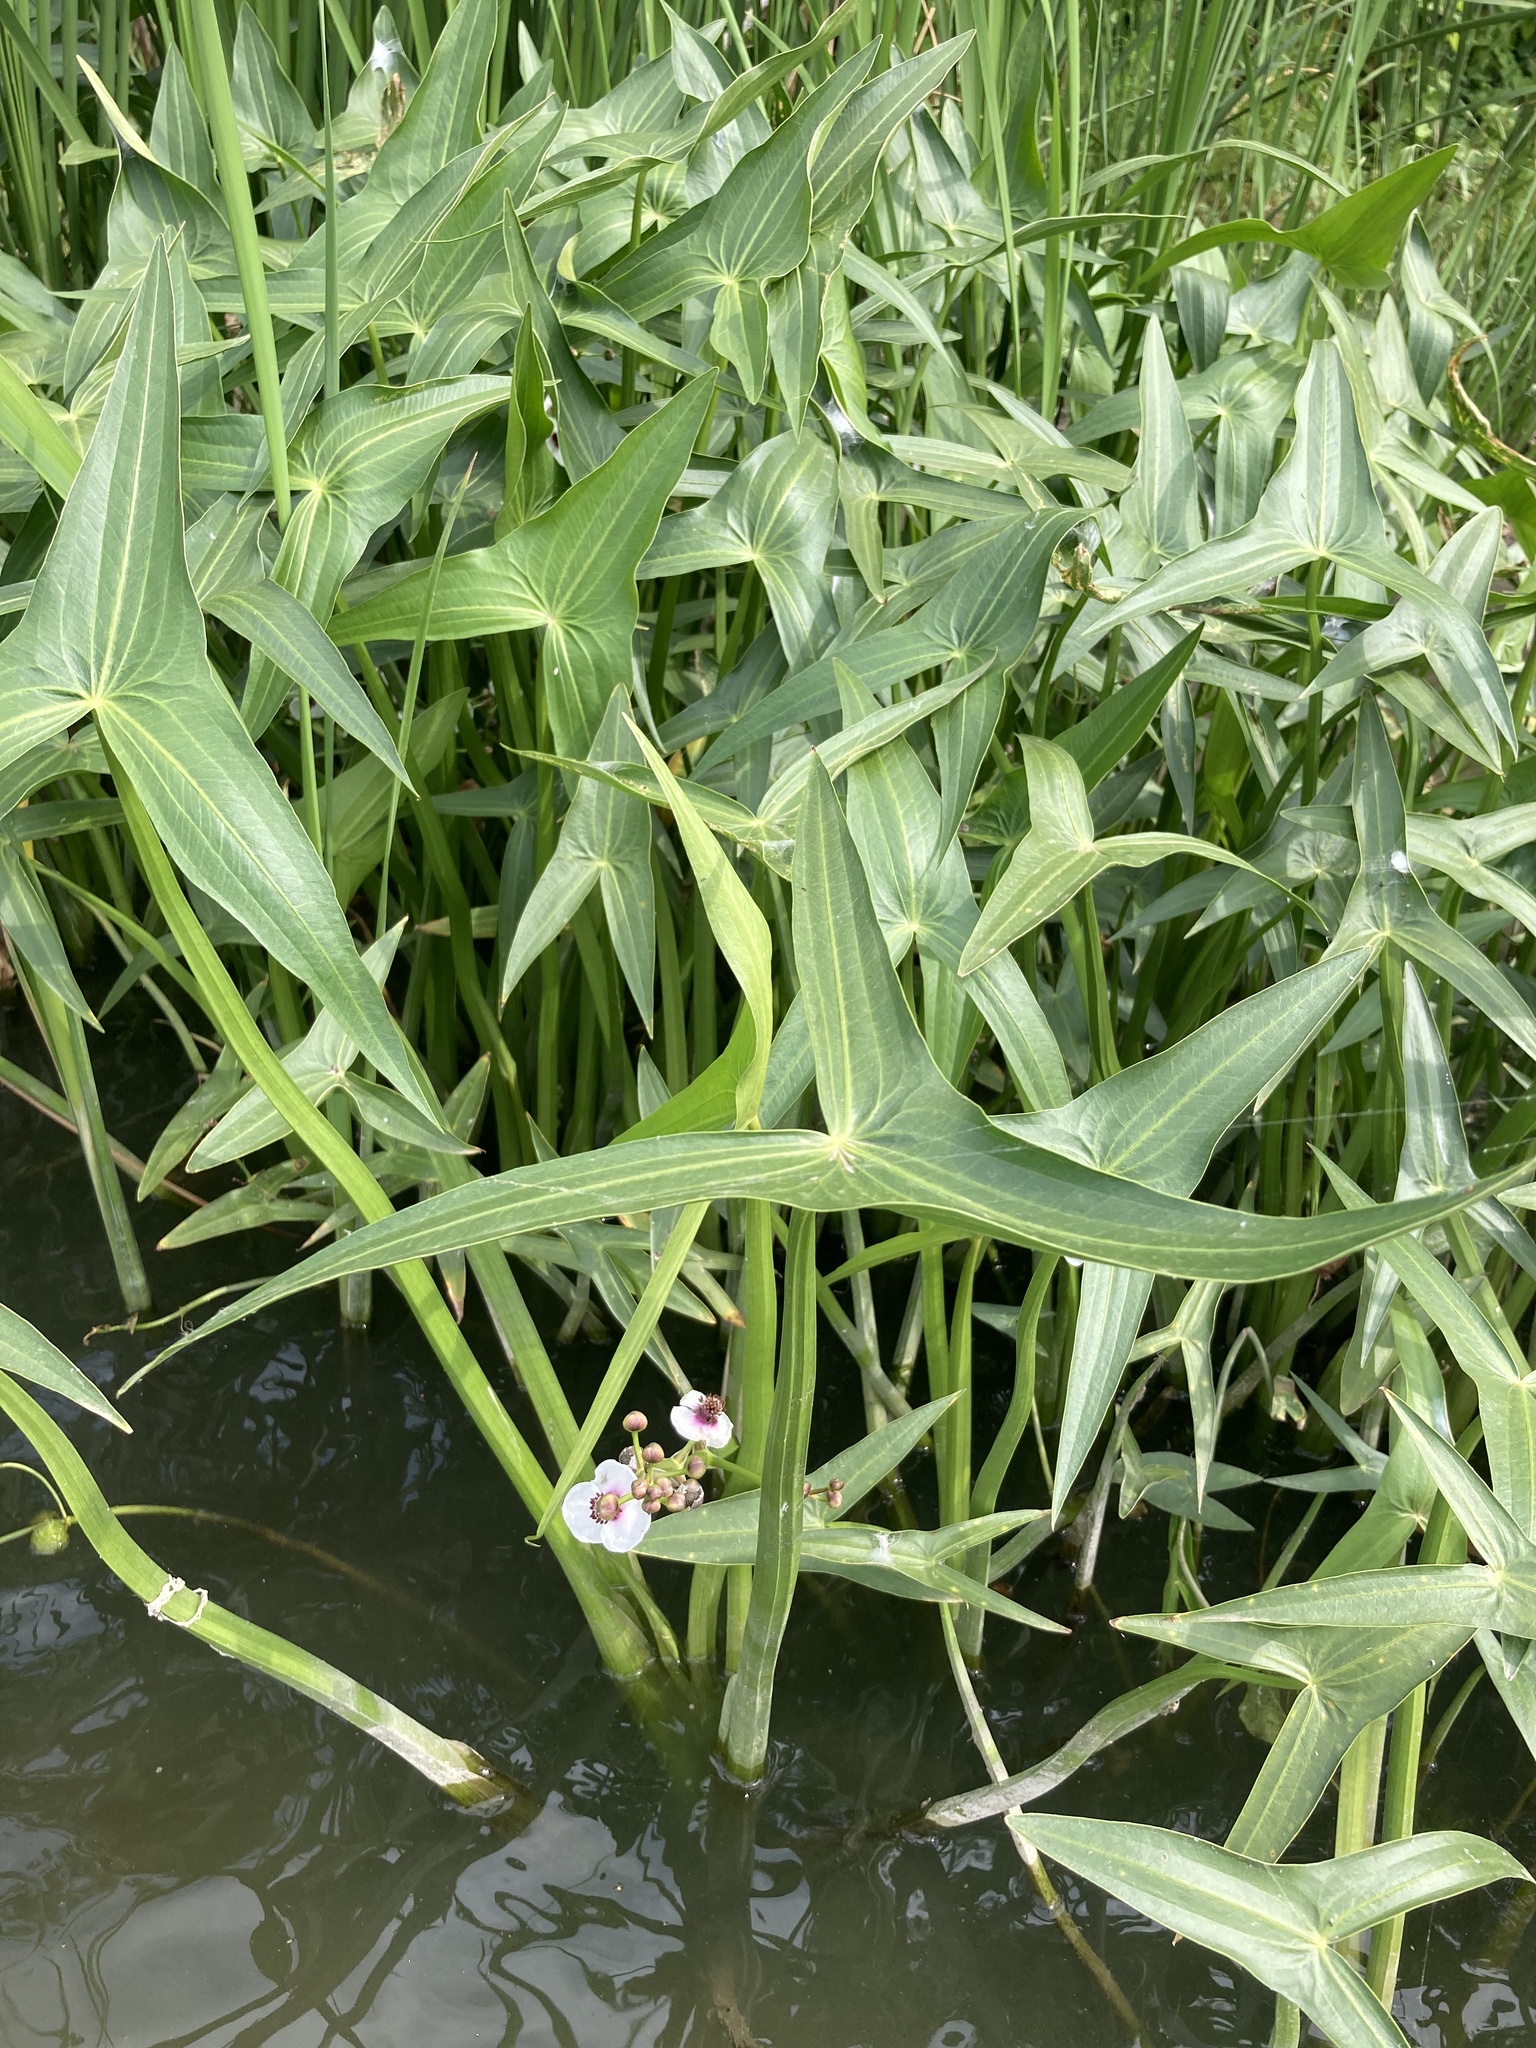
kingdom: Plantae
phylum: Tracheophyta
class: Liliopsida
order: Alismatales
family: Alismataceae
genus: Sagittaria
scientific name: Sagittaria sagittifolia
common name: Arrowhead
